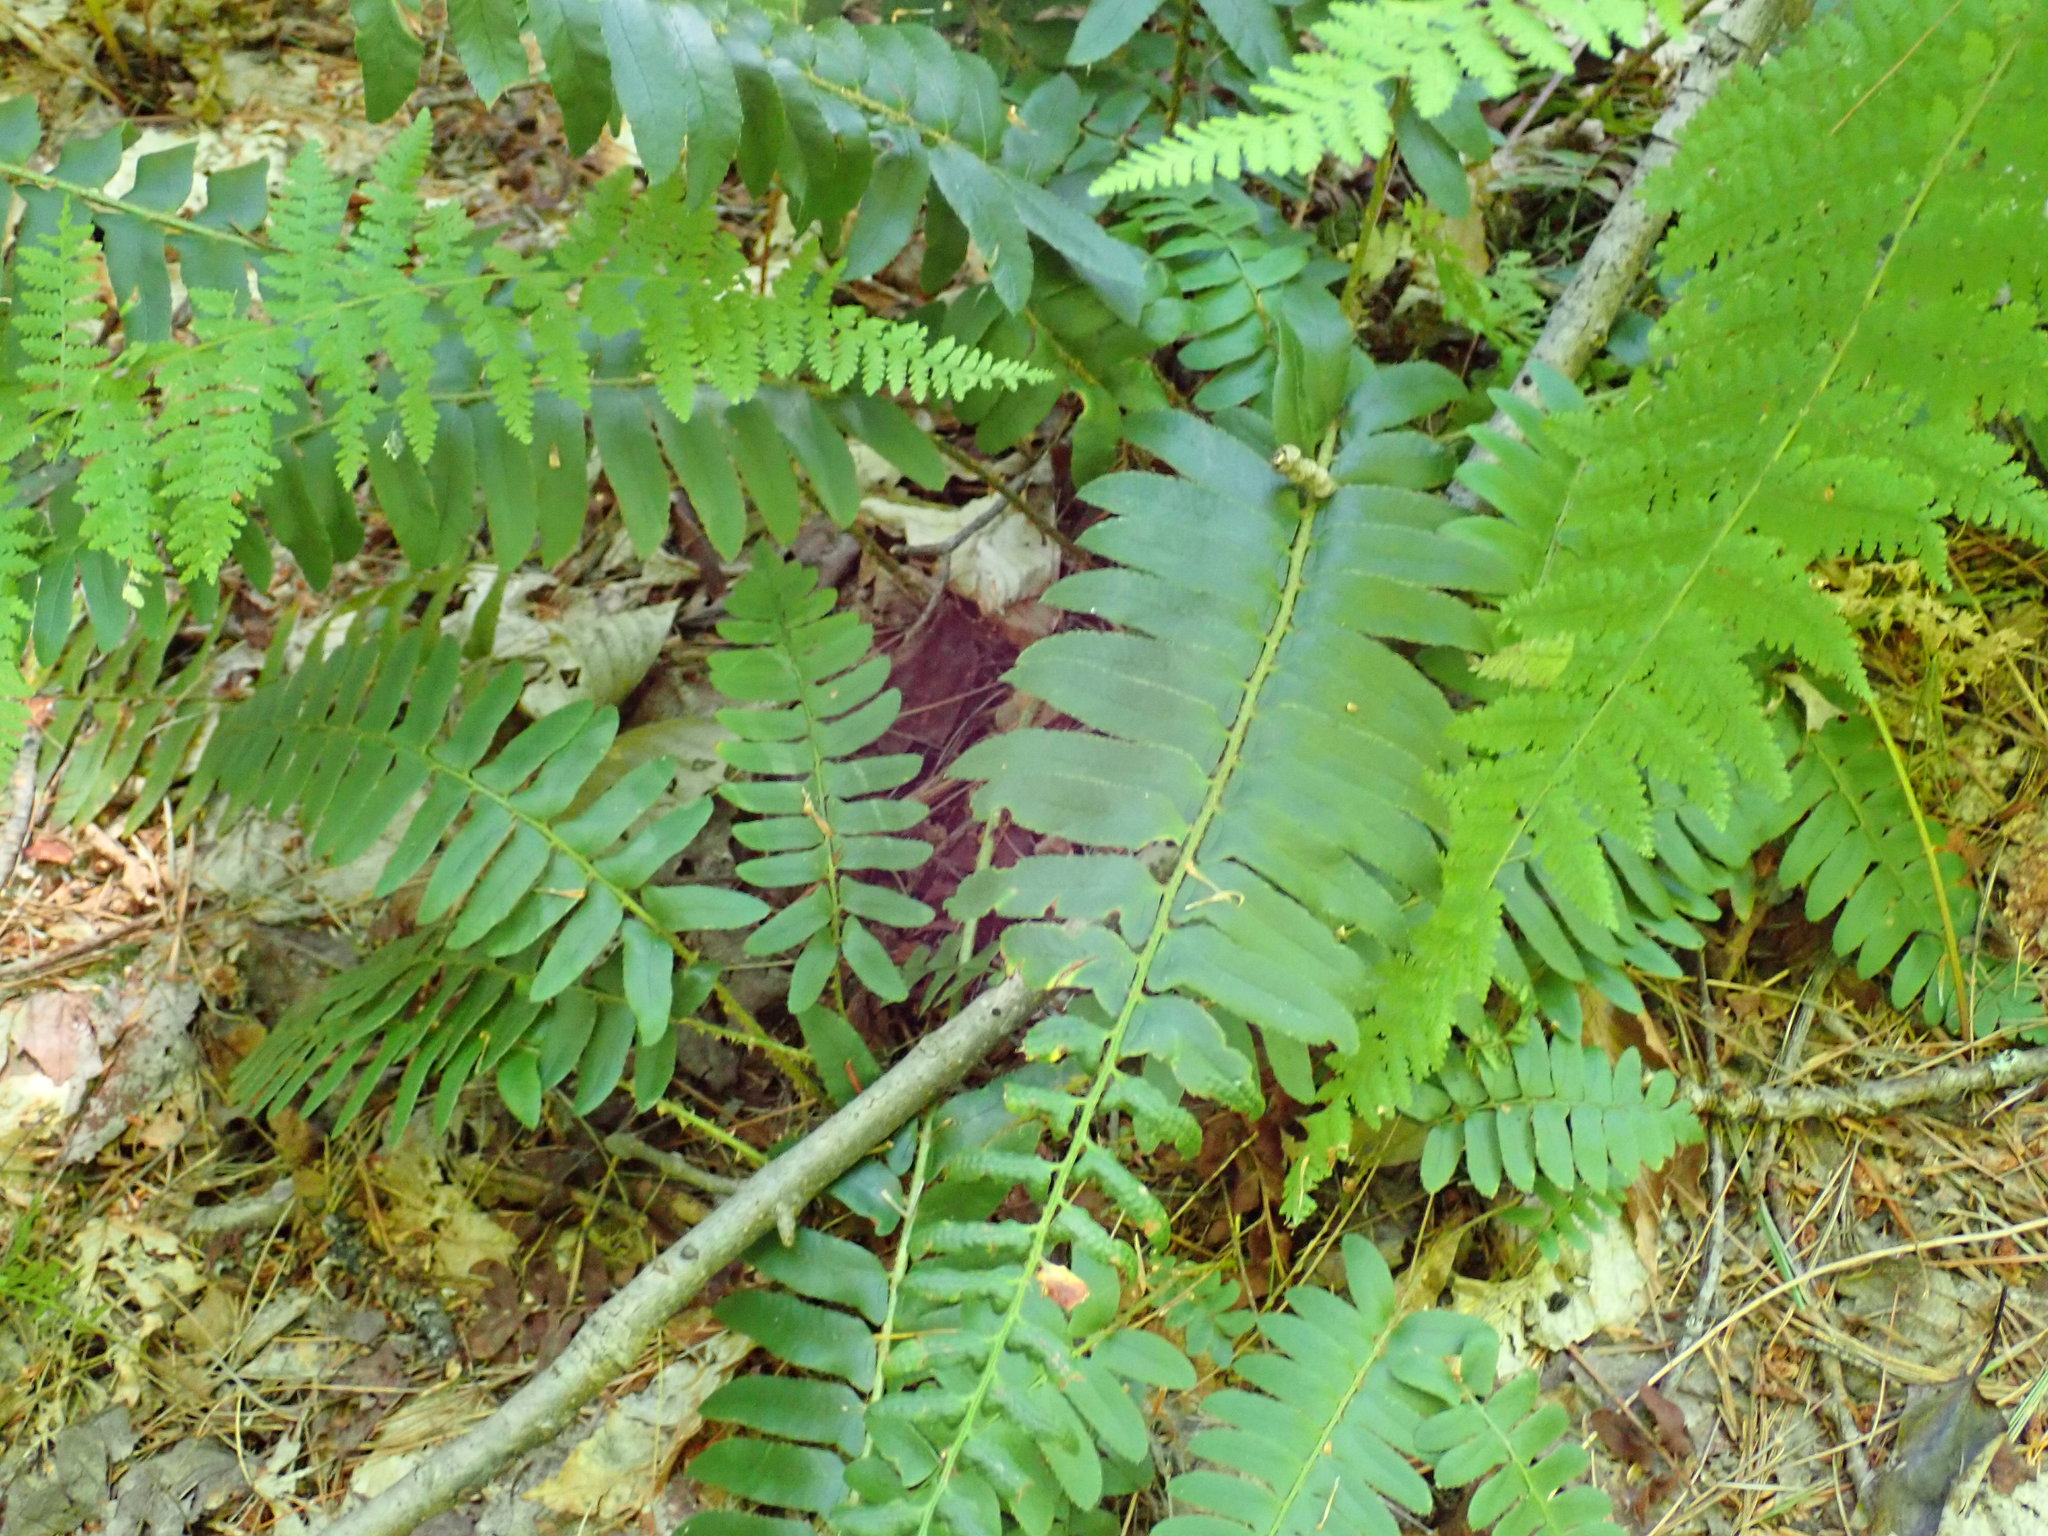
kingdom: Plantae
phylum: Tracheophyta
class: Polypodiopsida
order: Polypodiales
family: Dryopteridaceae
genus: Polystichum
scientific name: Polystichum acrostichoides
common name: Christmas fern
